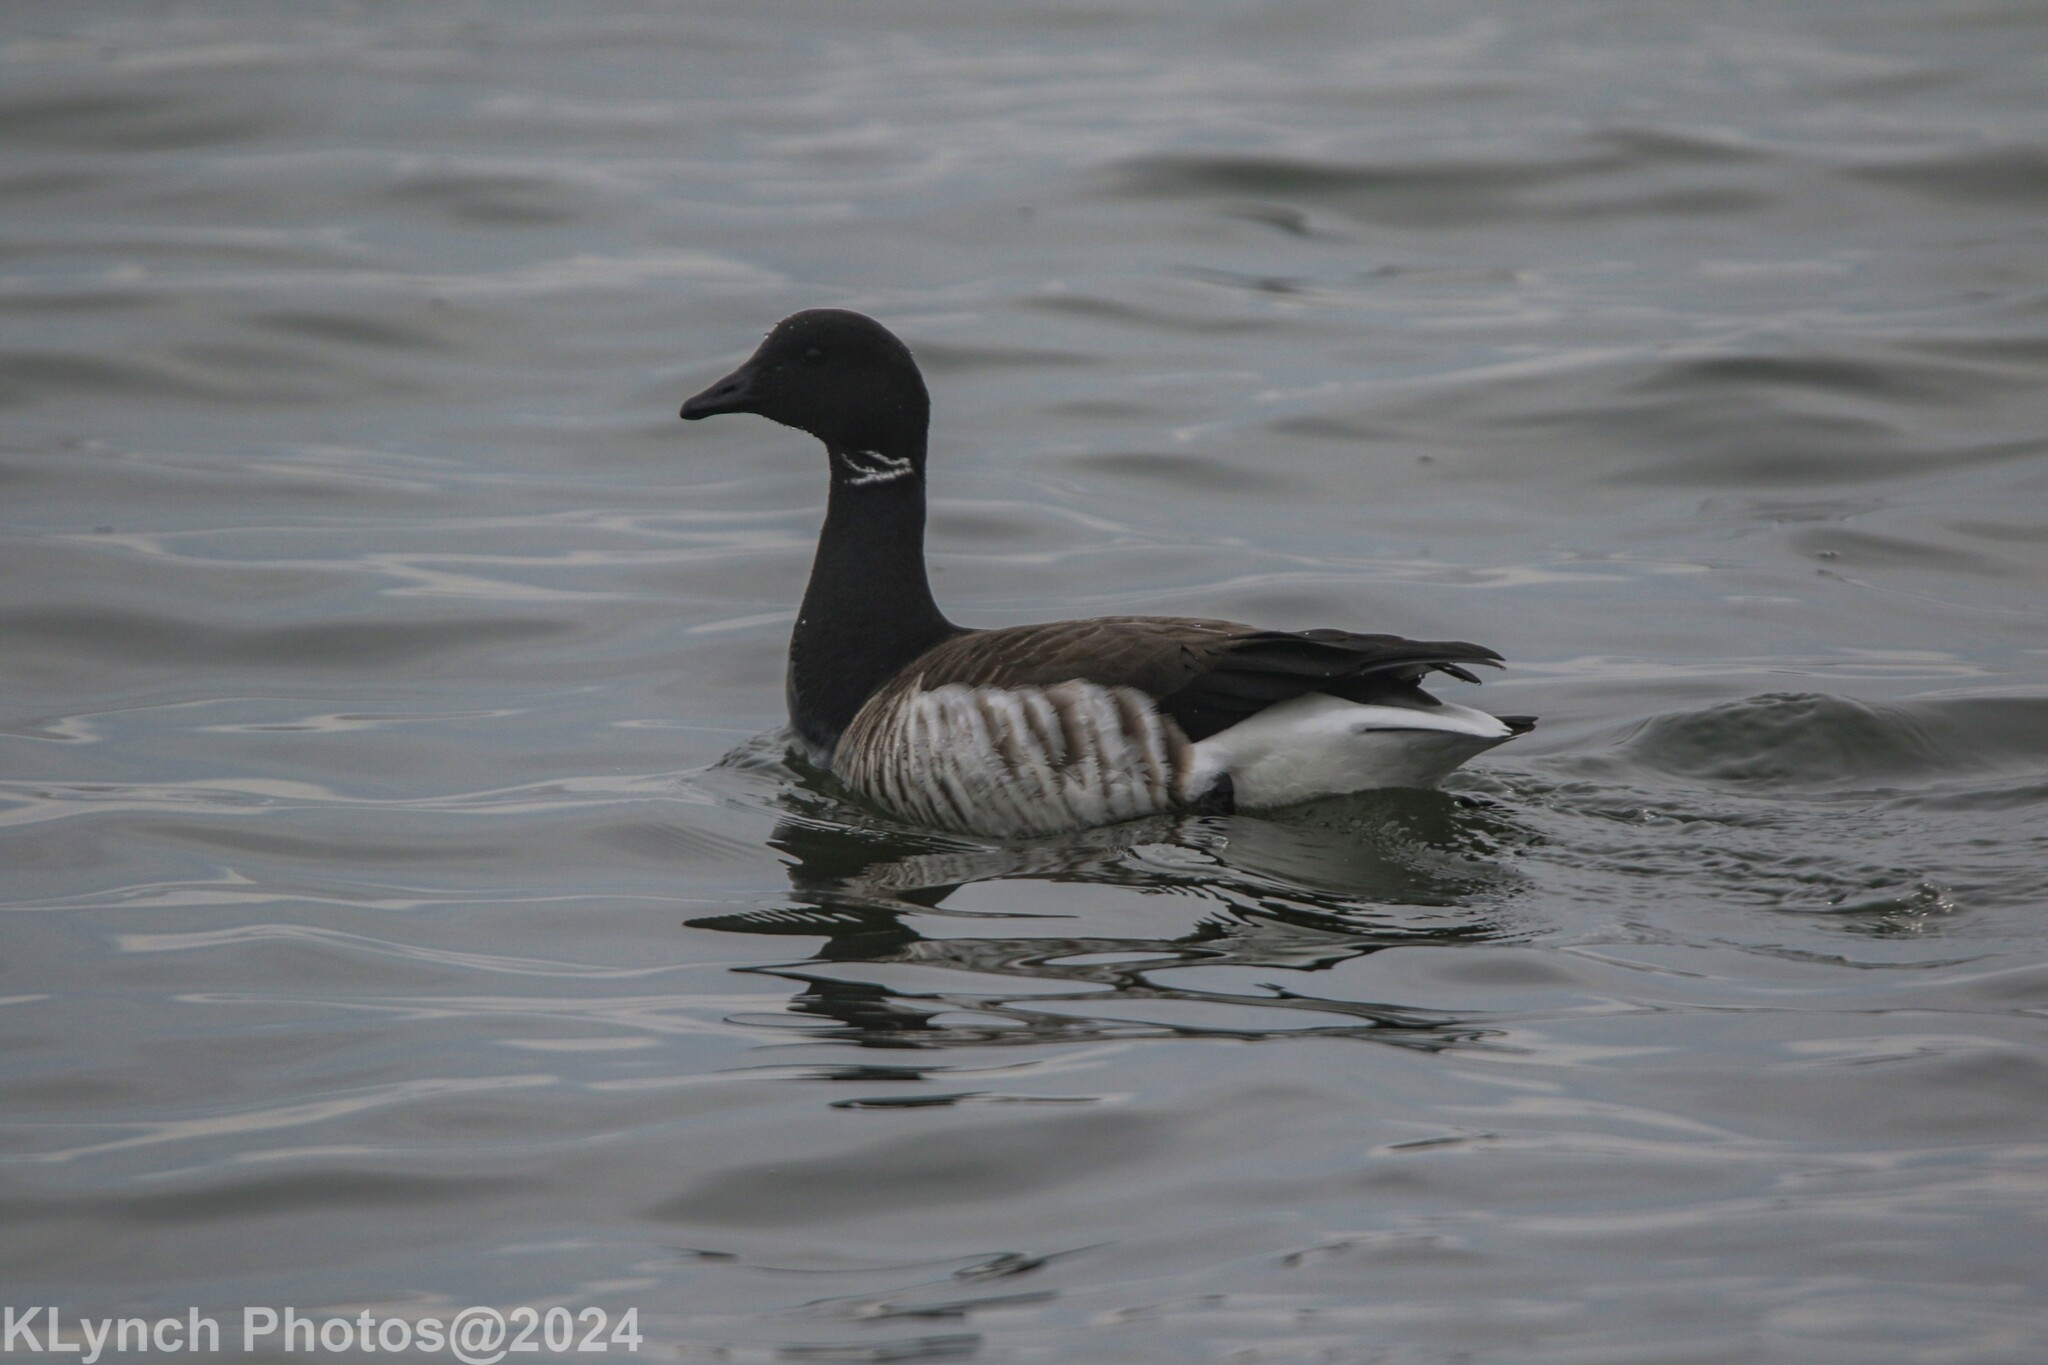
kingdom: Animalia
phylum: Chordata
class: Aves
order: Anseriformes
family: Anatidae
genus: Branta
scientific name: Branta bernicla
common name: Brant goose
